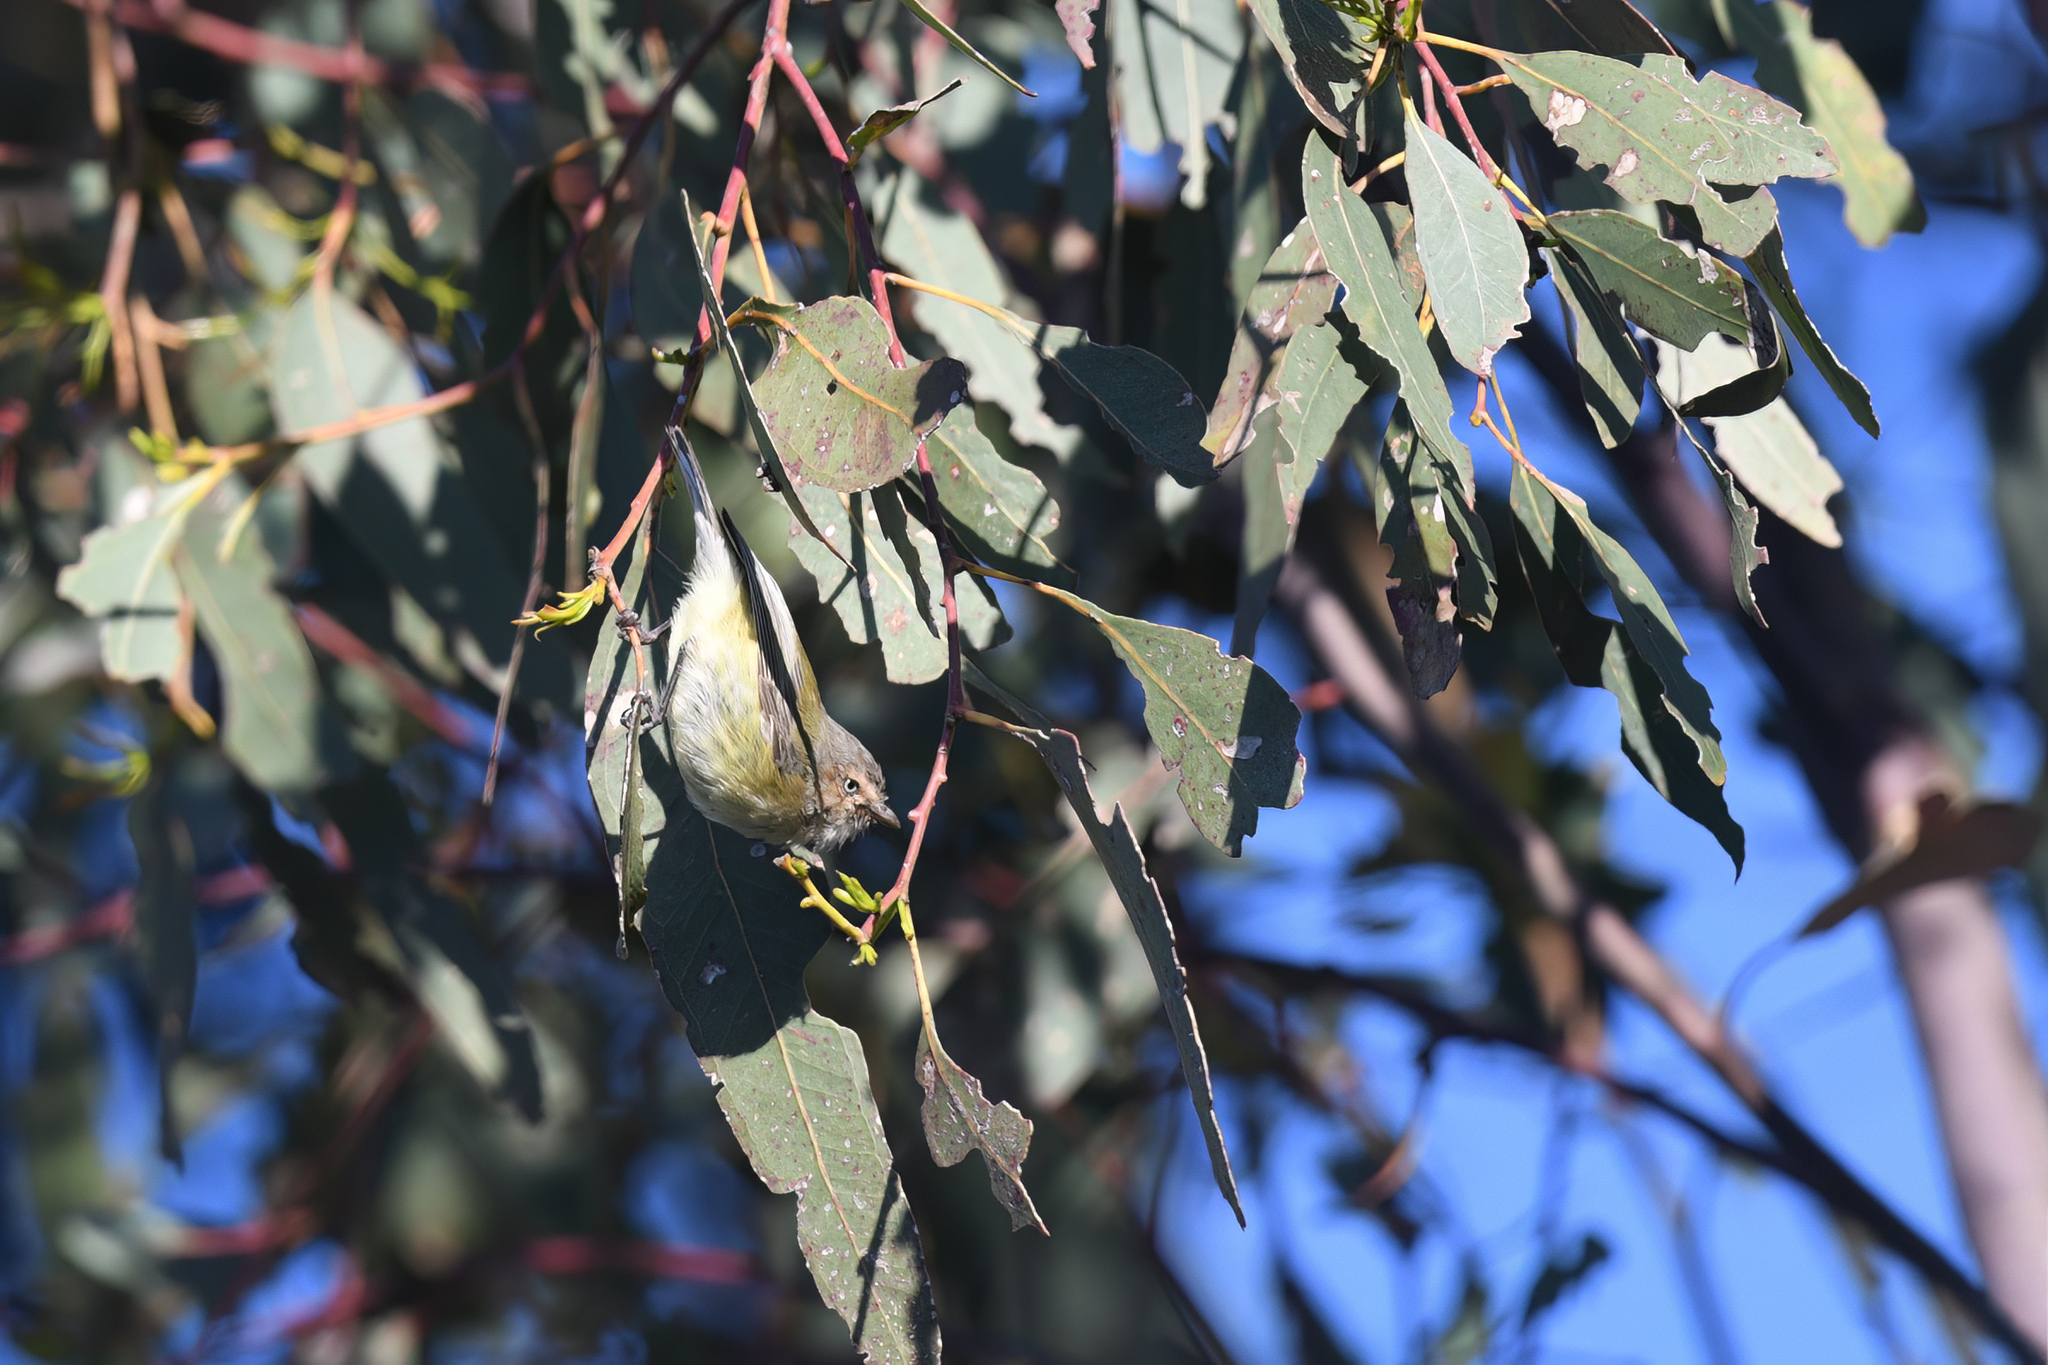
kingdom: Animalia
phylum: Chordata
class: Aves
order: Passeriformes
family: Acanthizidae
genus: Smicrornis
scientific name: Smicrornis brevirostris
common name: Weebill
